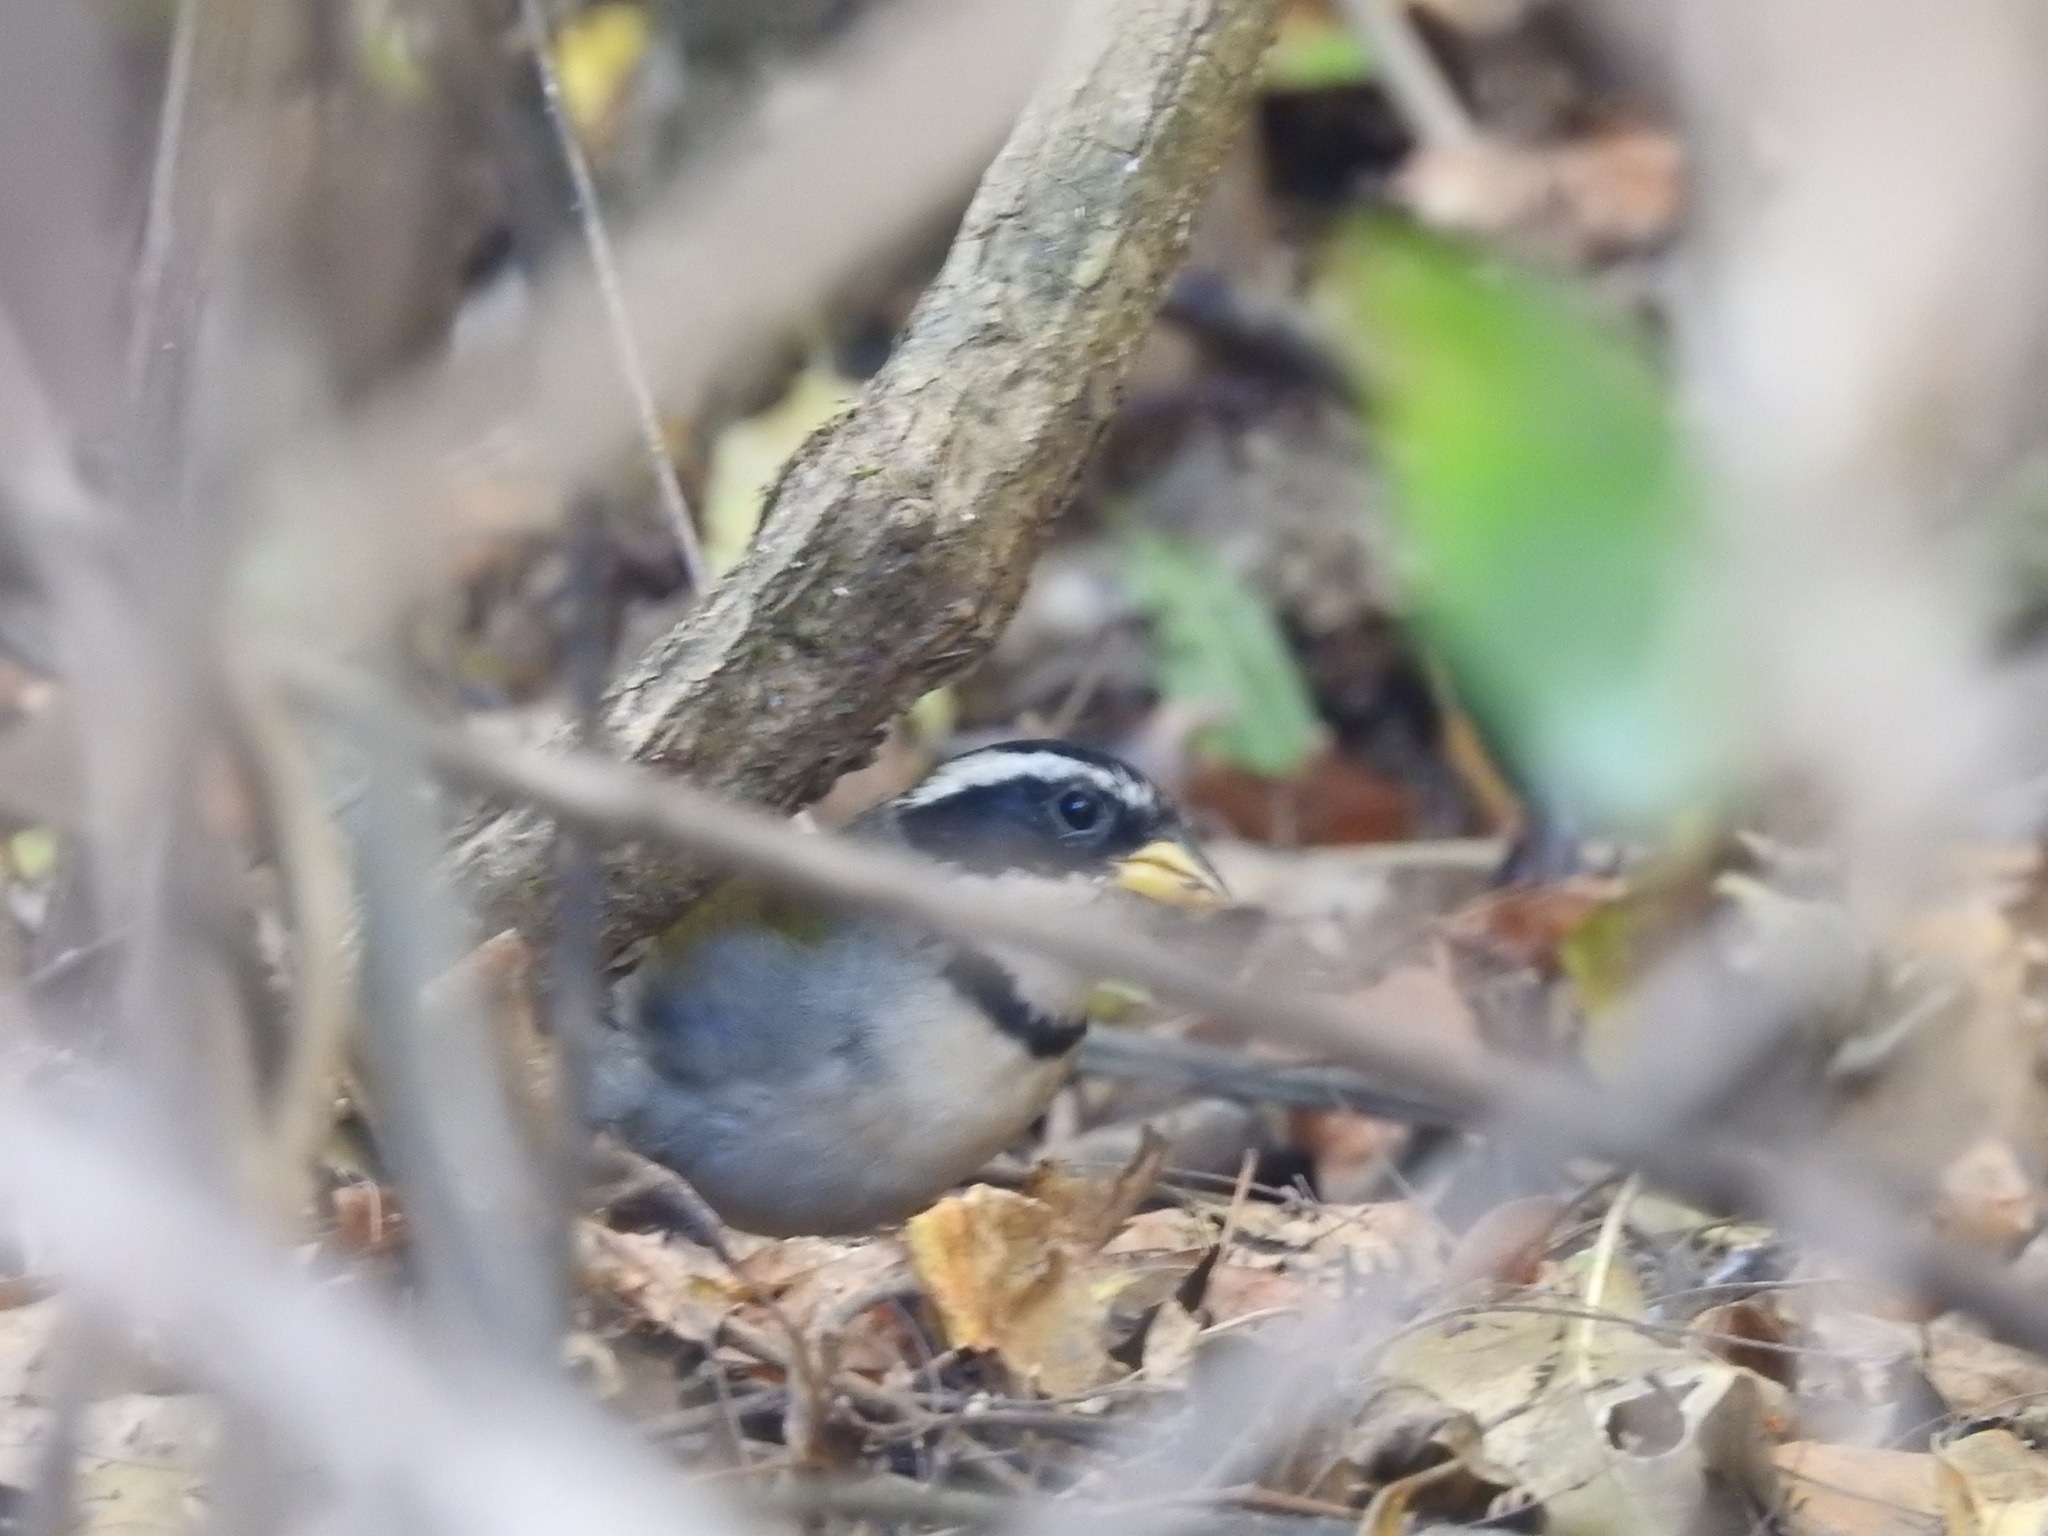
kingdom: Animalia
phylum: Chordata
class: Aves
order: Passeriformes
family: Passerellidae
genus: Arremon
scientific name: Arremon dorbignii
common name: Moss-backed sparrow
